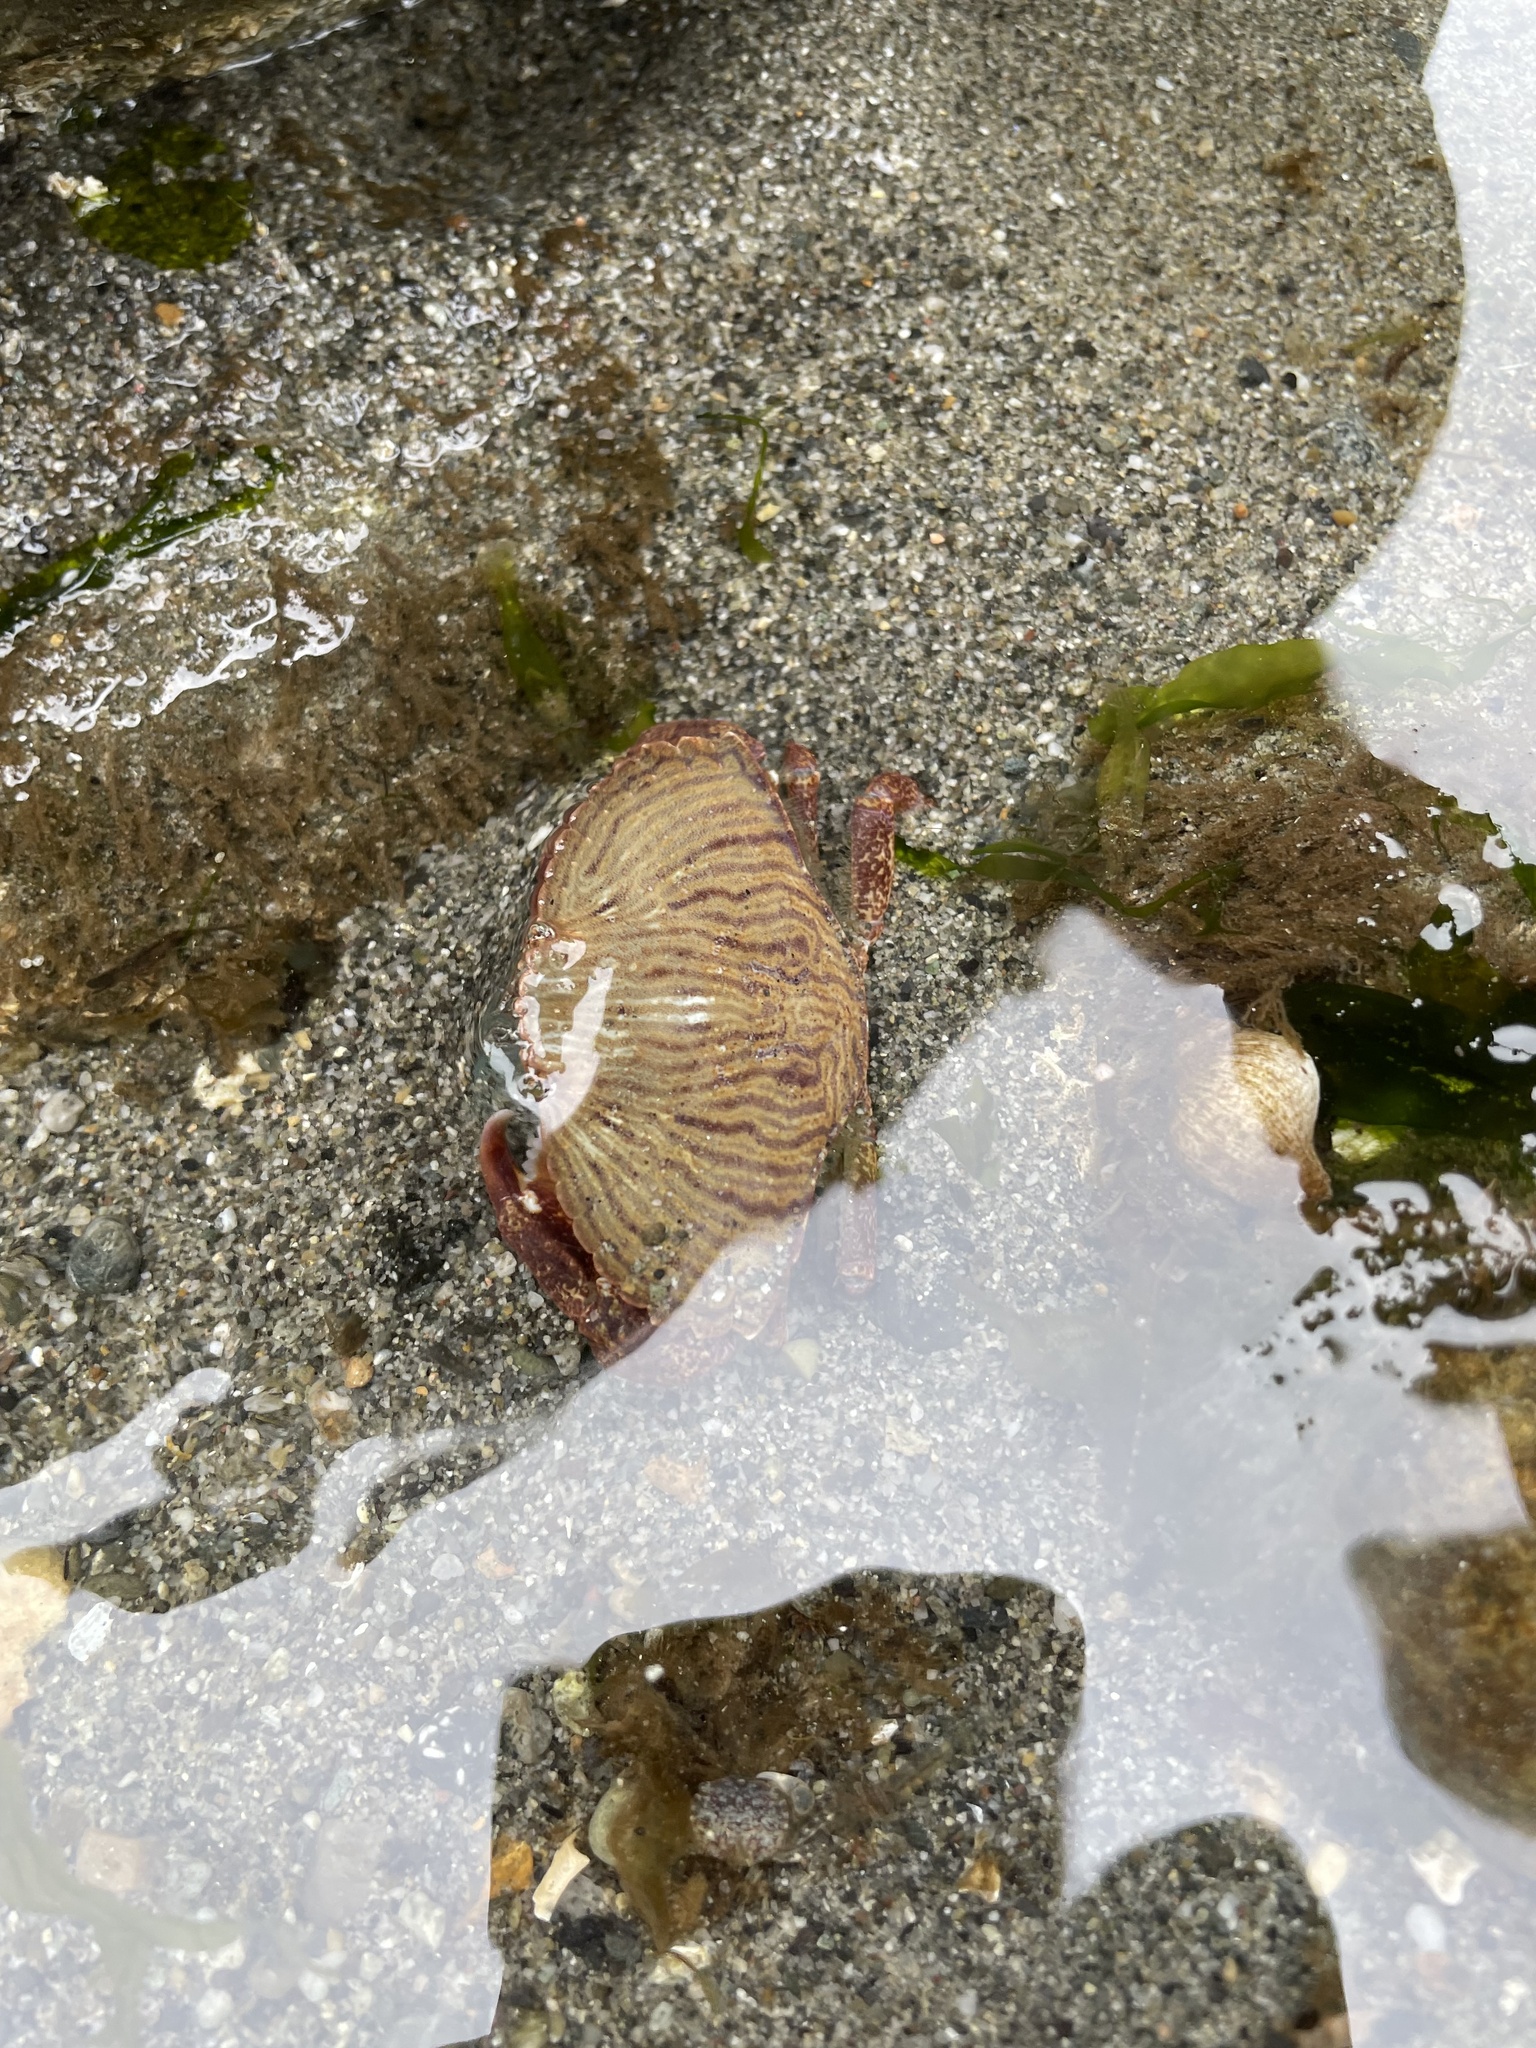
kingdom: Animalia
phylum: Arthropoda
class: Malacostraca
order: Decapoda
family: Cancridae
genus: Cancer
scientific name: Cancer productus
